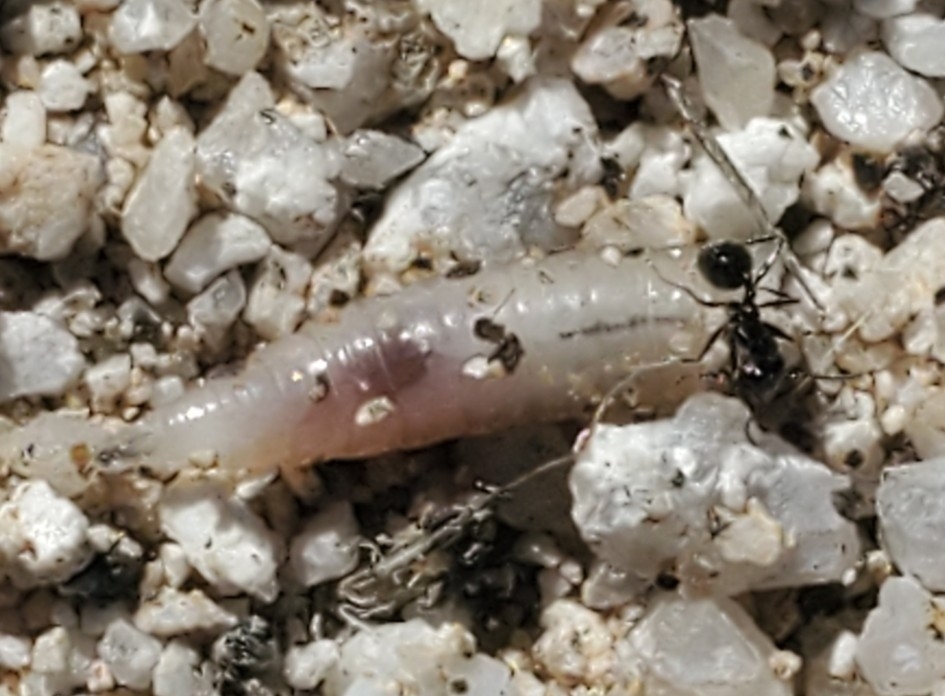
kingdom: Animalia
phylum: Arthropoda
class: Insecta
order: Hymenoptera
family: Formicidae
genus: Messor
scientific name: Messor pergandei
